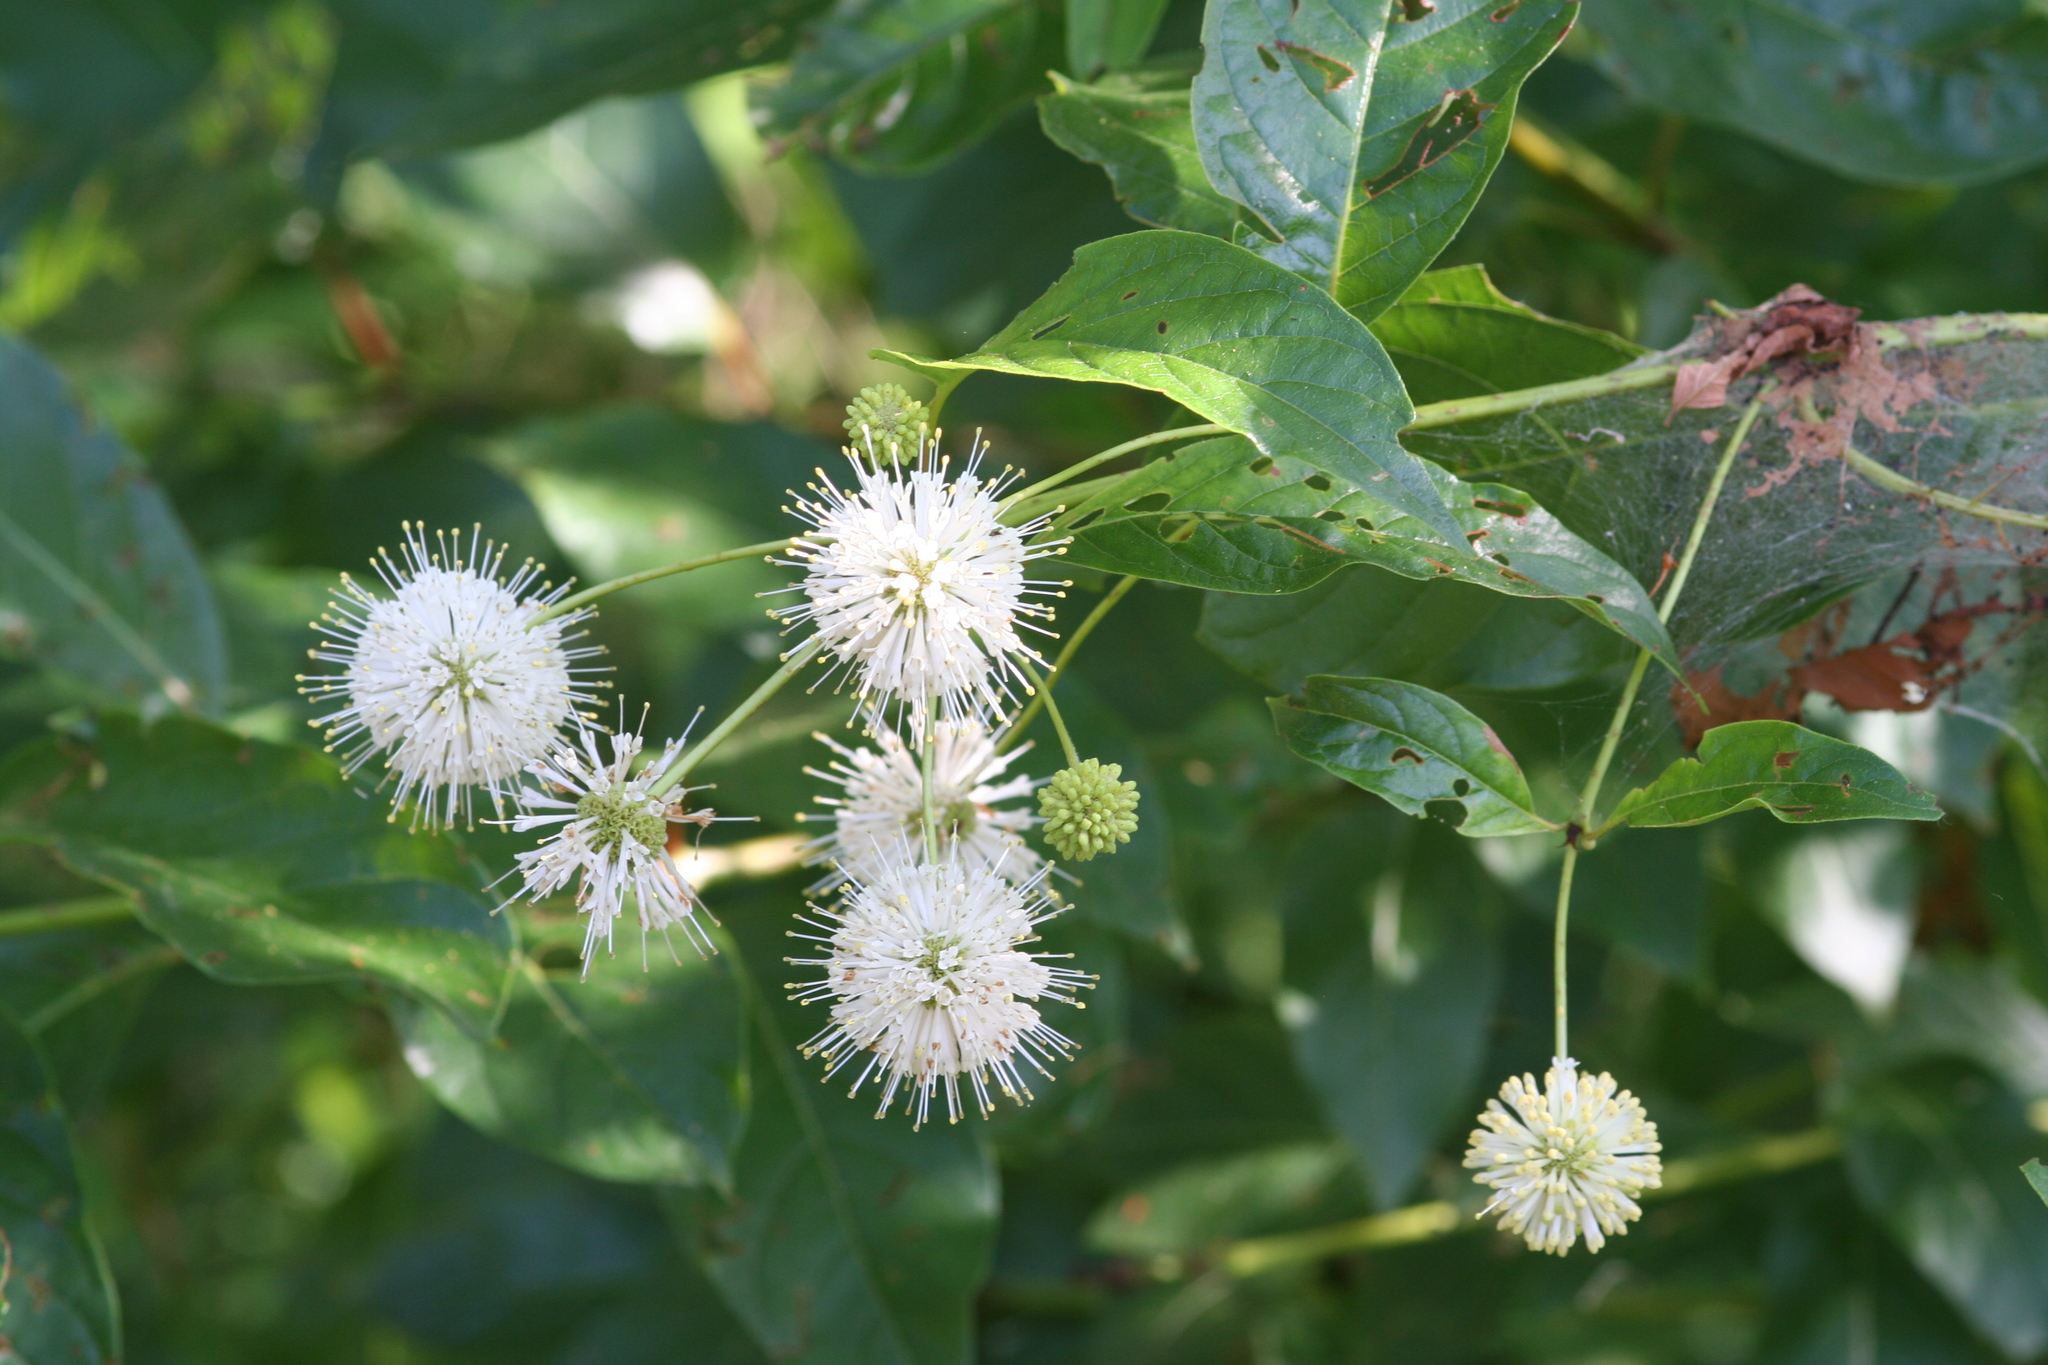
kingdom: Plantae
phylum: Tracheophyta
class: Magnoliopsida
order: Gentianales
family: Rubiaceae
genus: Cephalanthus
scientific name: Cephalanthus occidentalis
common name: Button-willow
